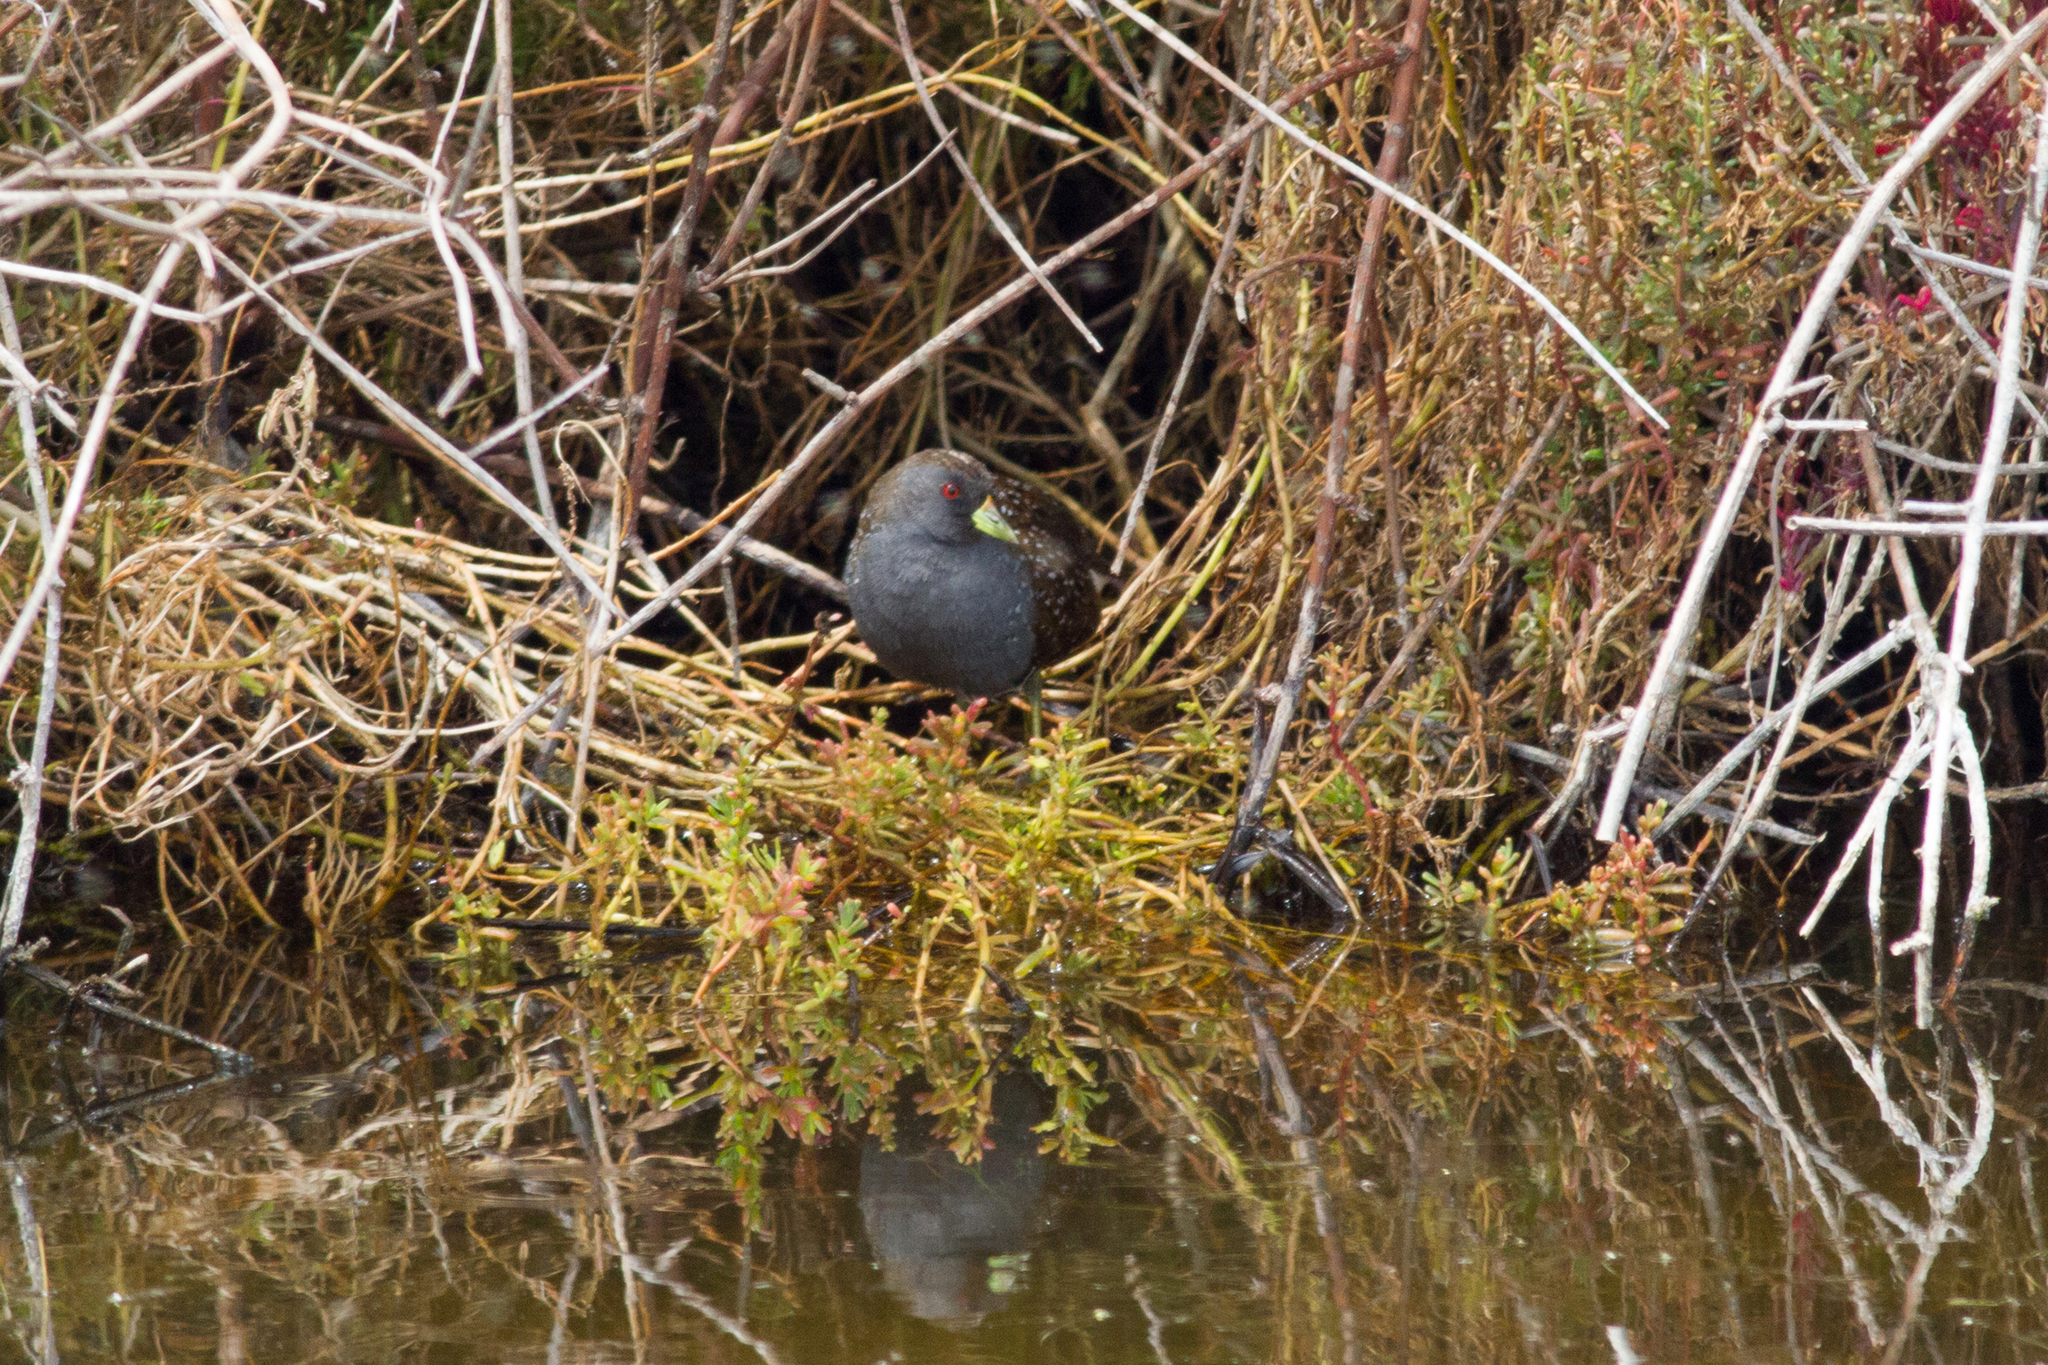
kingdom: Animalia
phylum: Chordata
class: Aves
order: Gruiformes
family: Rallidae
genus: Porzana
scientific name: Porzana fluminea
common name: Australian crake
